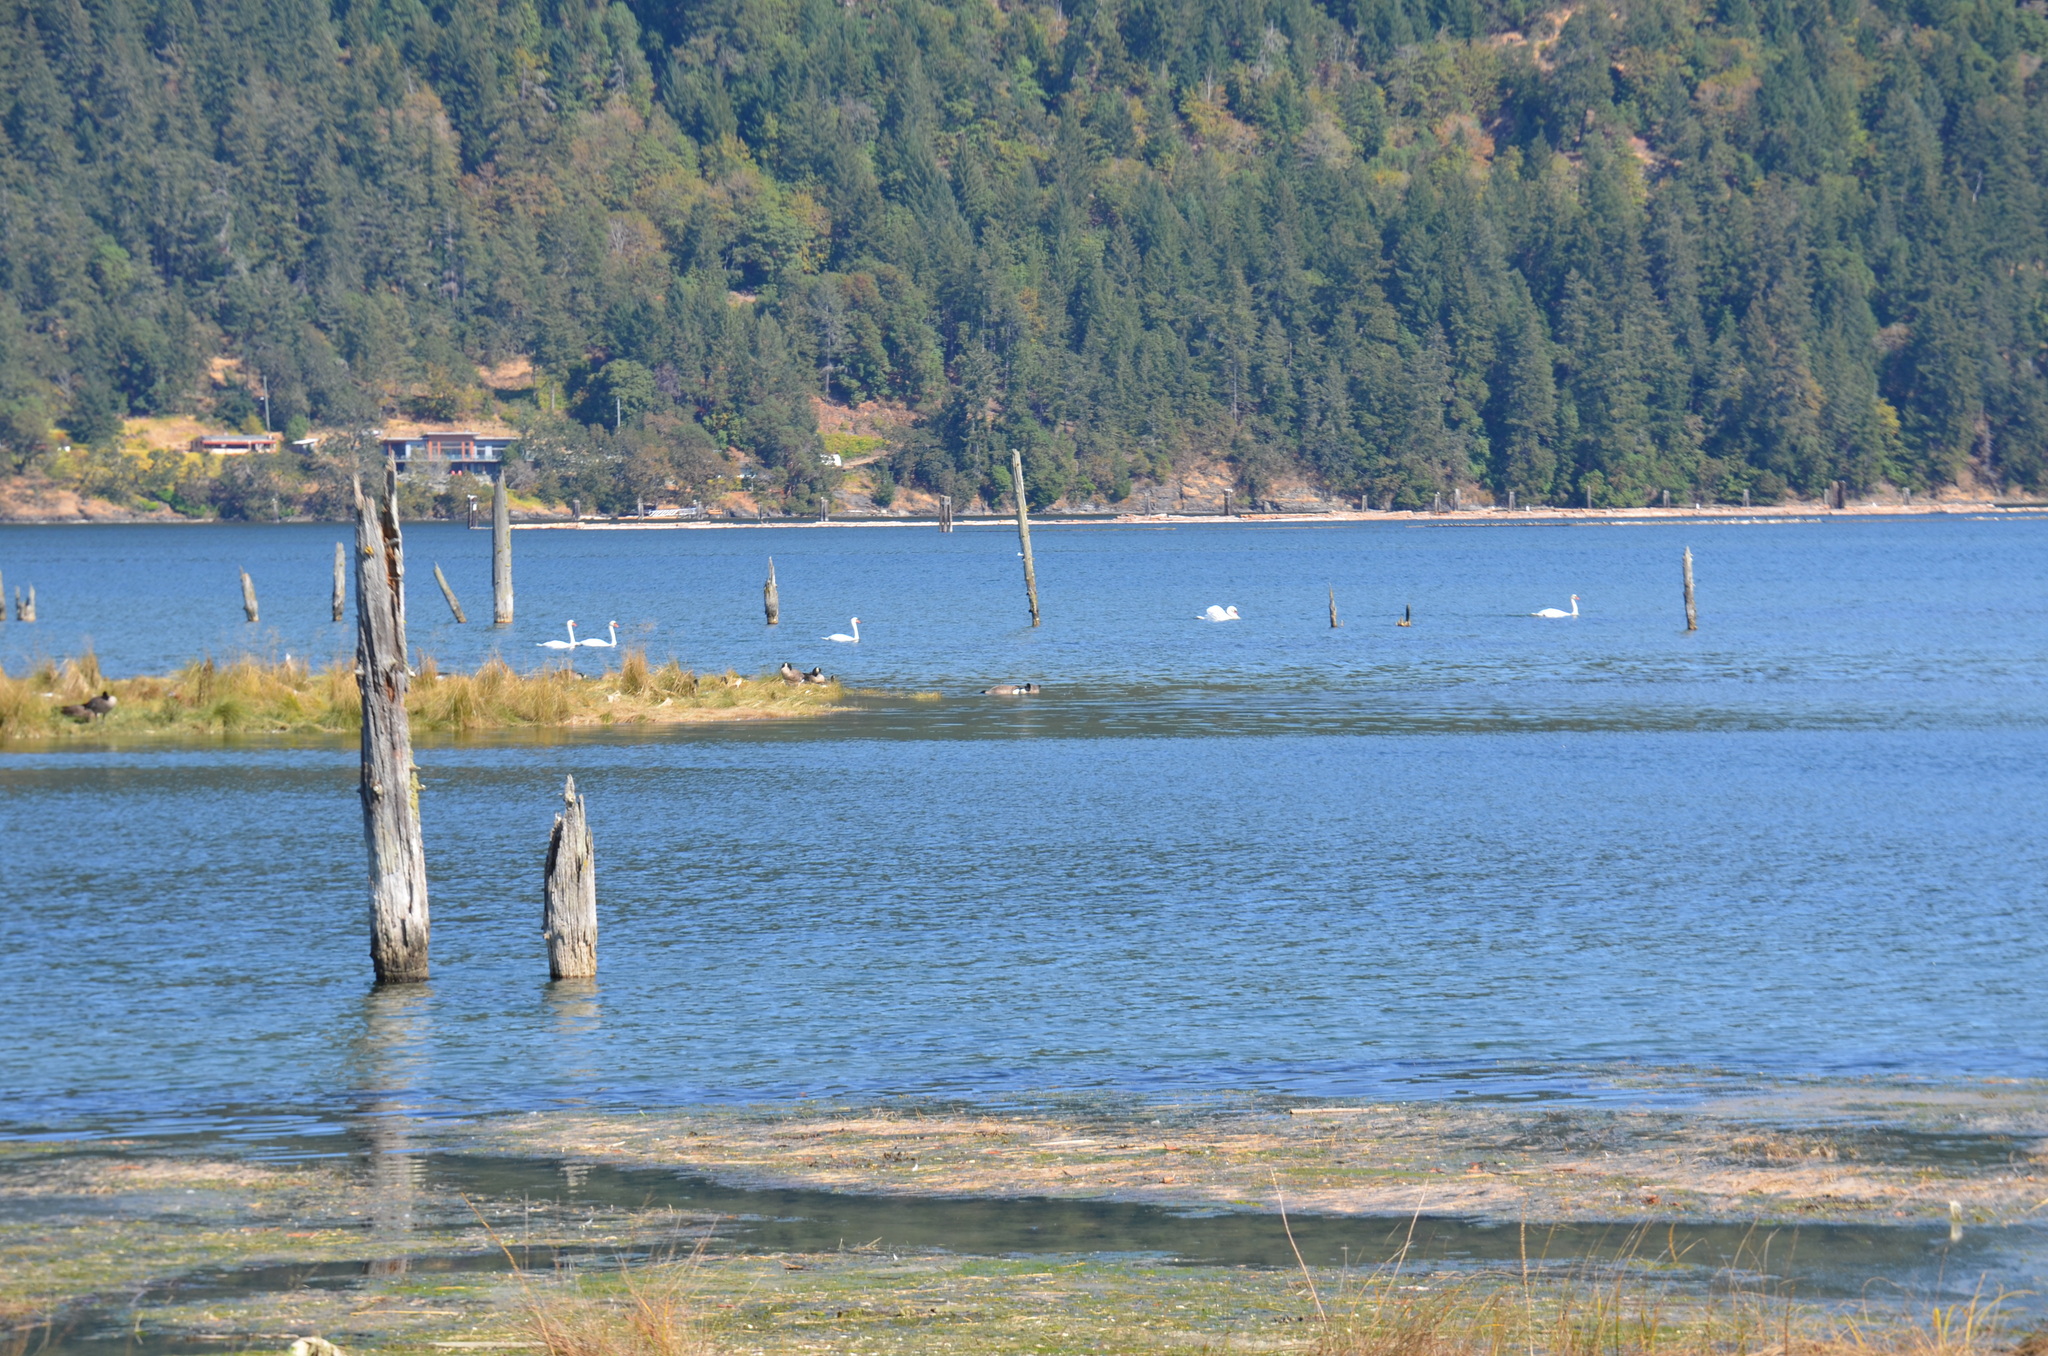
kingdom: Animalia
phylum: Chordata
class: Aves
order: Anseriformes
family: Anatidae
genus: Cygnus
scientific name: Cygnus olor
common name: Mute swan
